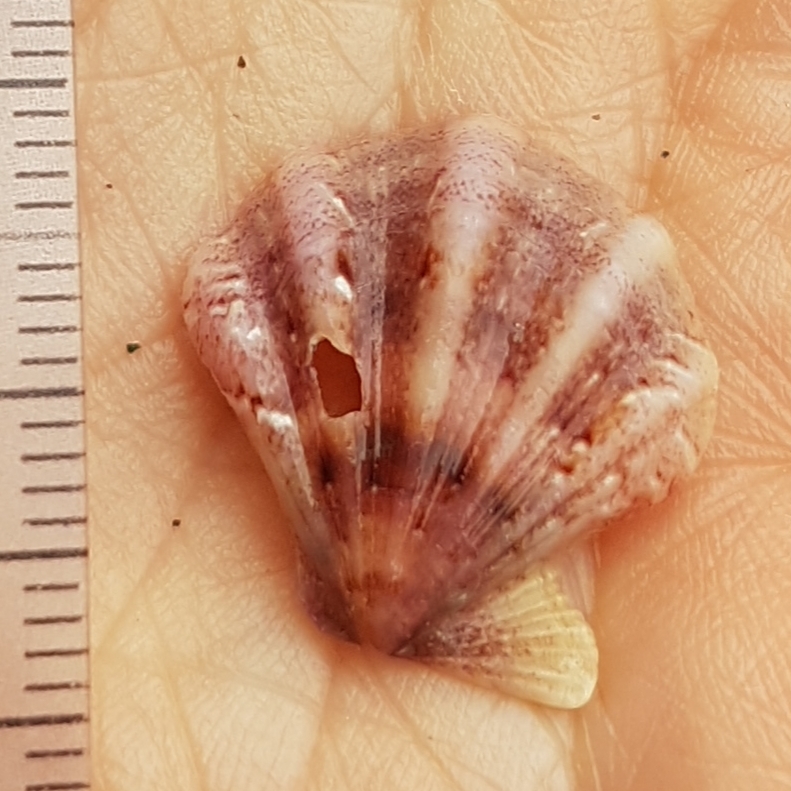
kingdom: Animalia
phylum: Mollusca
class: Bivalvia
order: Pectinida
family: Pectinidae
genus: Flexopecten
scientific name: Flexopecten flexuosus
